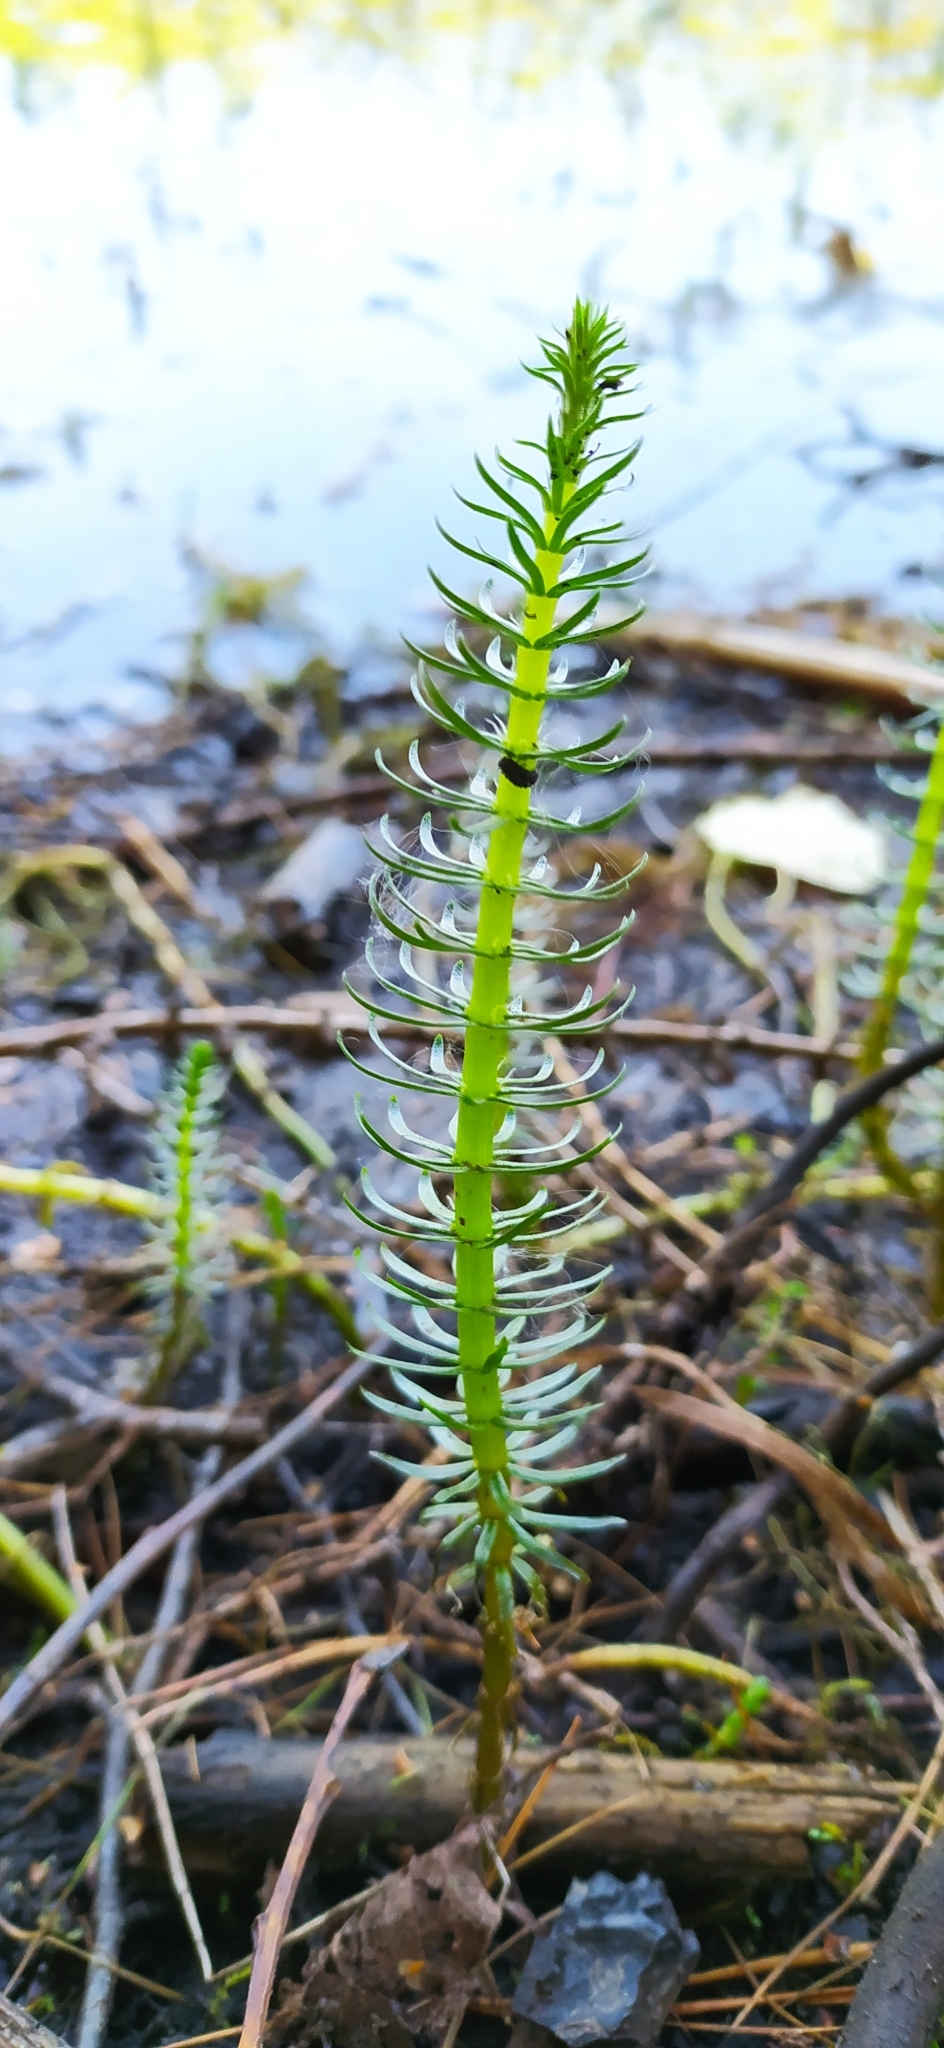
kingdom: Plantae
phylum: Tracheophyta
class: Magnoliopsida
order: Lamiales
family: Plantaginaceae
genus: Hippuris
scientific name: Hippuris vulgaris
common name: Mare's-tail
